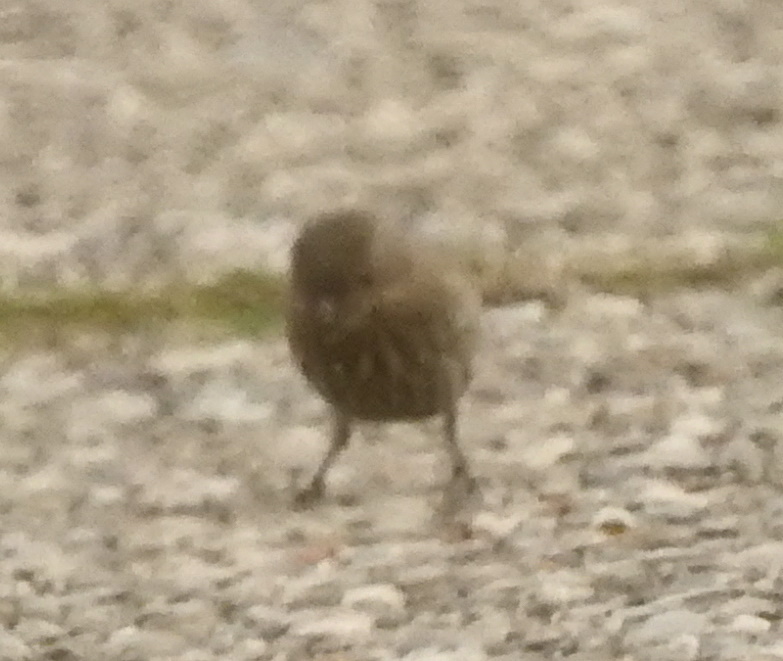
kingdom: Animalia
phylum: Chordata
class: Aves
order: Passeriformes
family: Fringillidae
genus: Haemorhous
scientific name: Haemorhous mexicanus
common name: House finch
